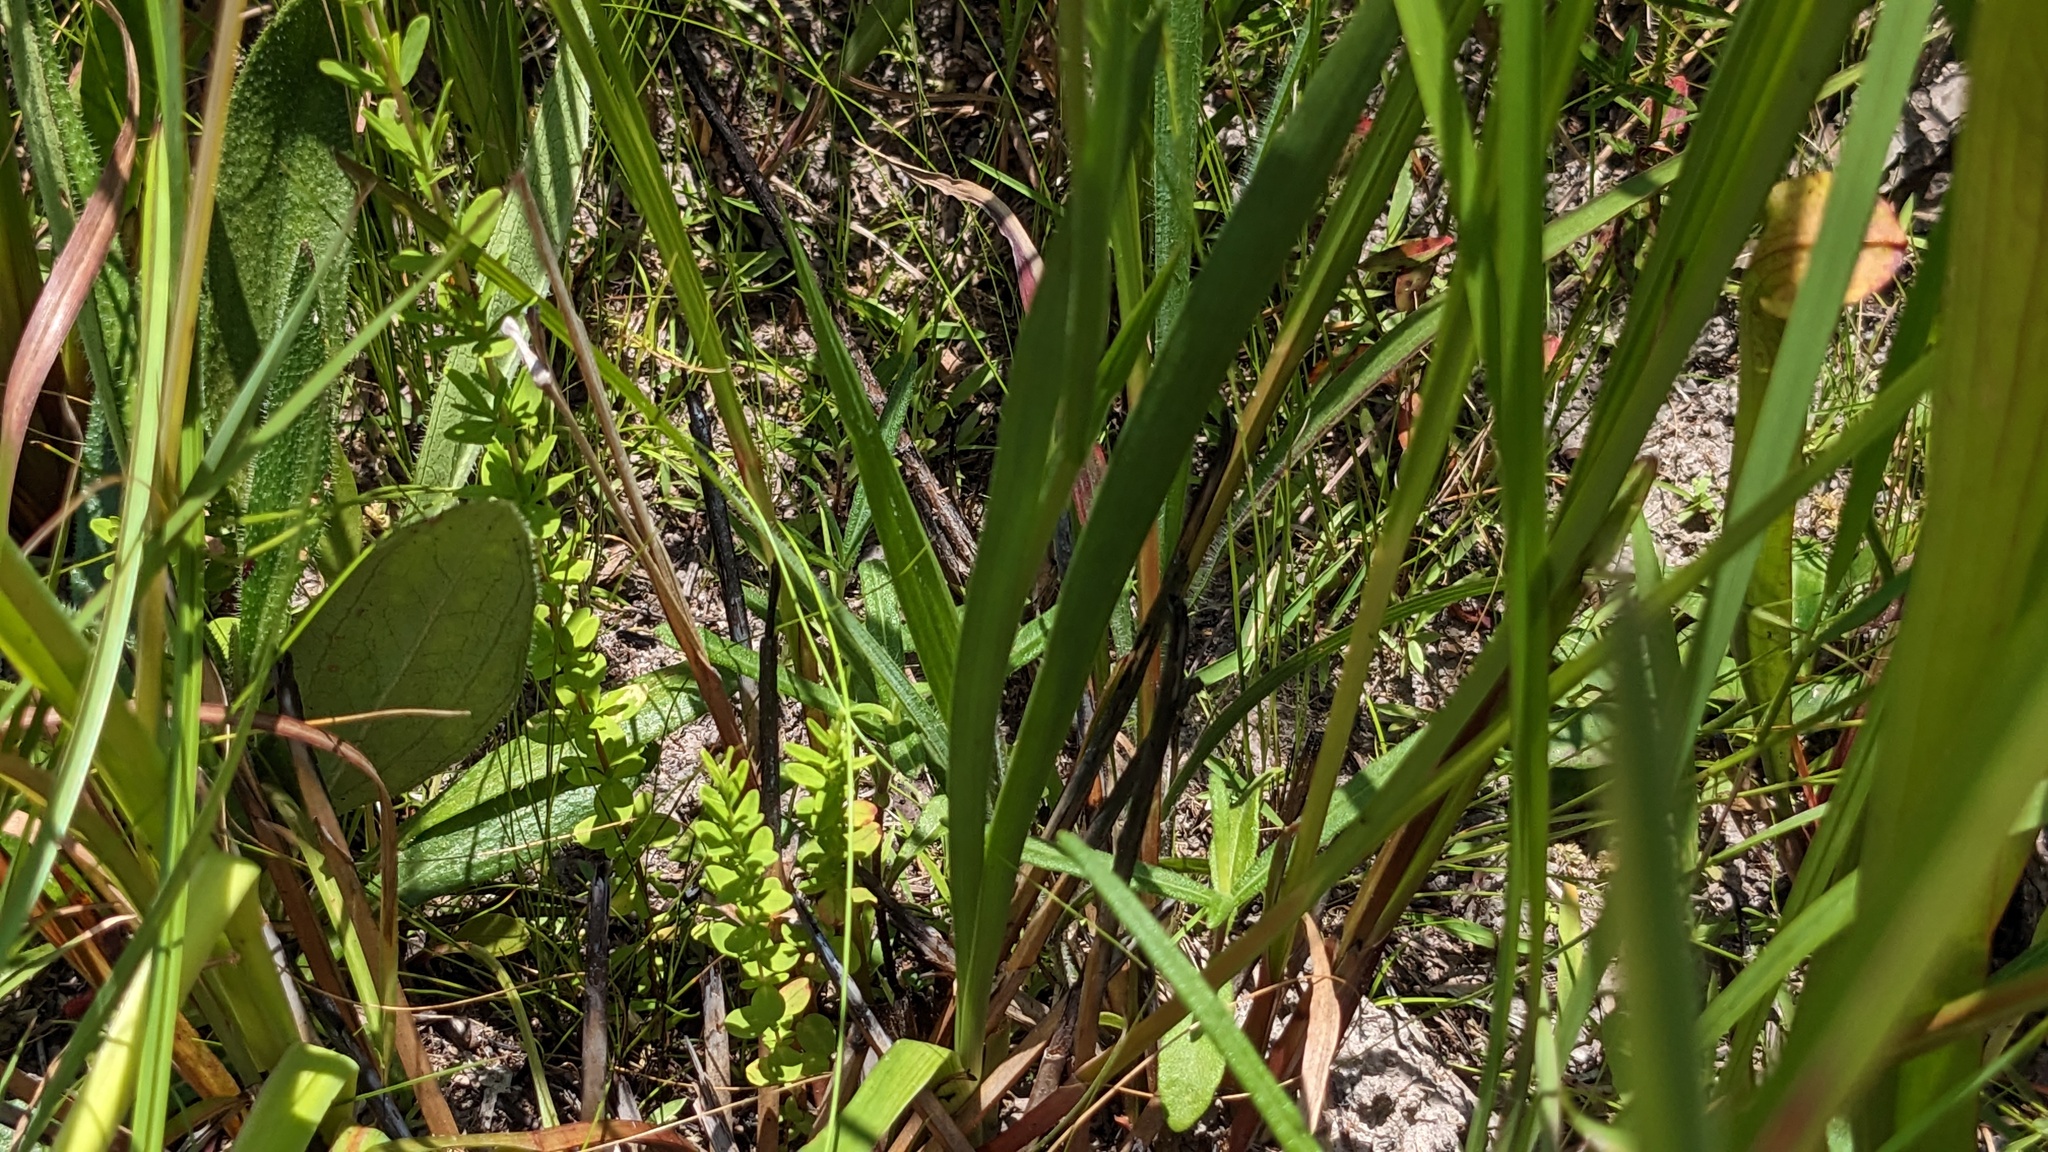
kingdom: Plantae
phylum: Tracheophyta
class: Liliopsida
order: Alismatales
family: Tofieldiaceae
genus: Triantha
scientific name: Triantha racemosa
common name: Coastal false asphodel
